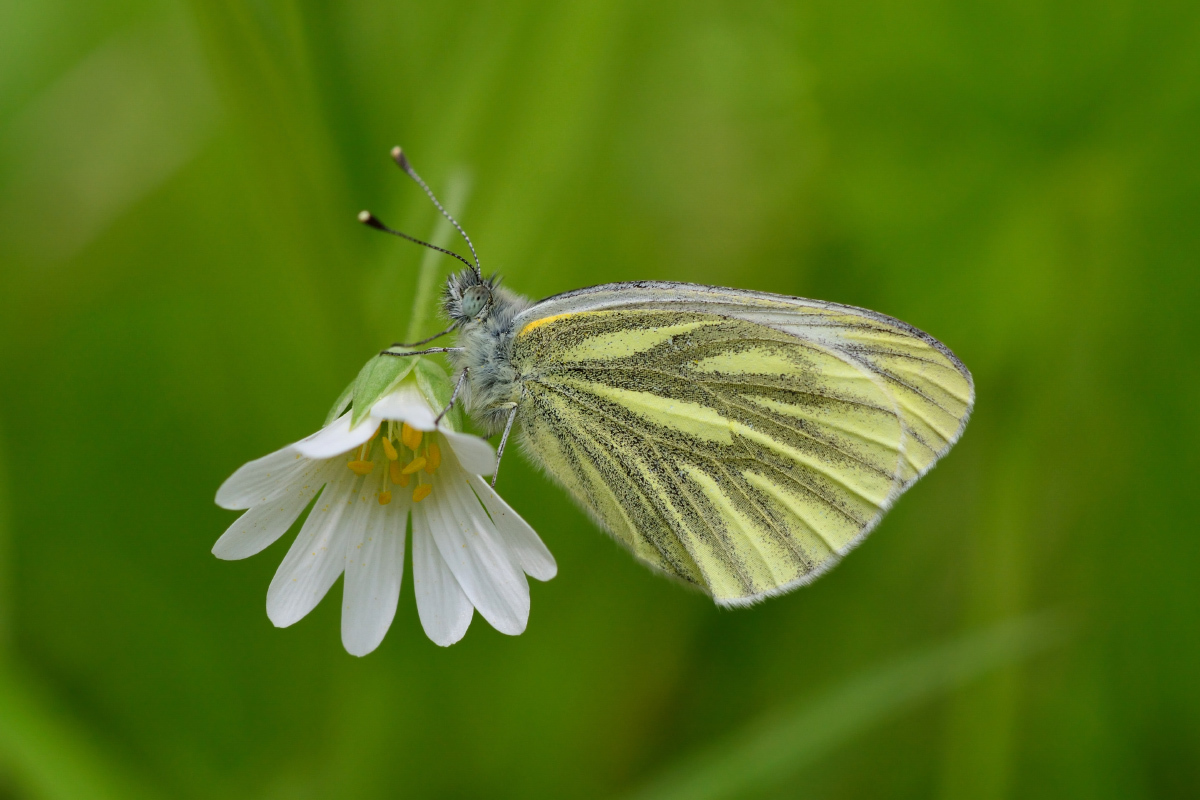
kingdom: Animalia
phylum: Arthropoda
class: Insecta
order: Lepidoptera
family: Pieridae
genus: Pieris
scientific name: Pieris napi
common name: Green-veined white
